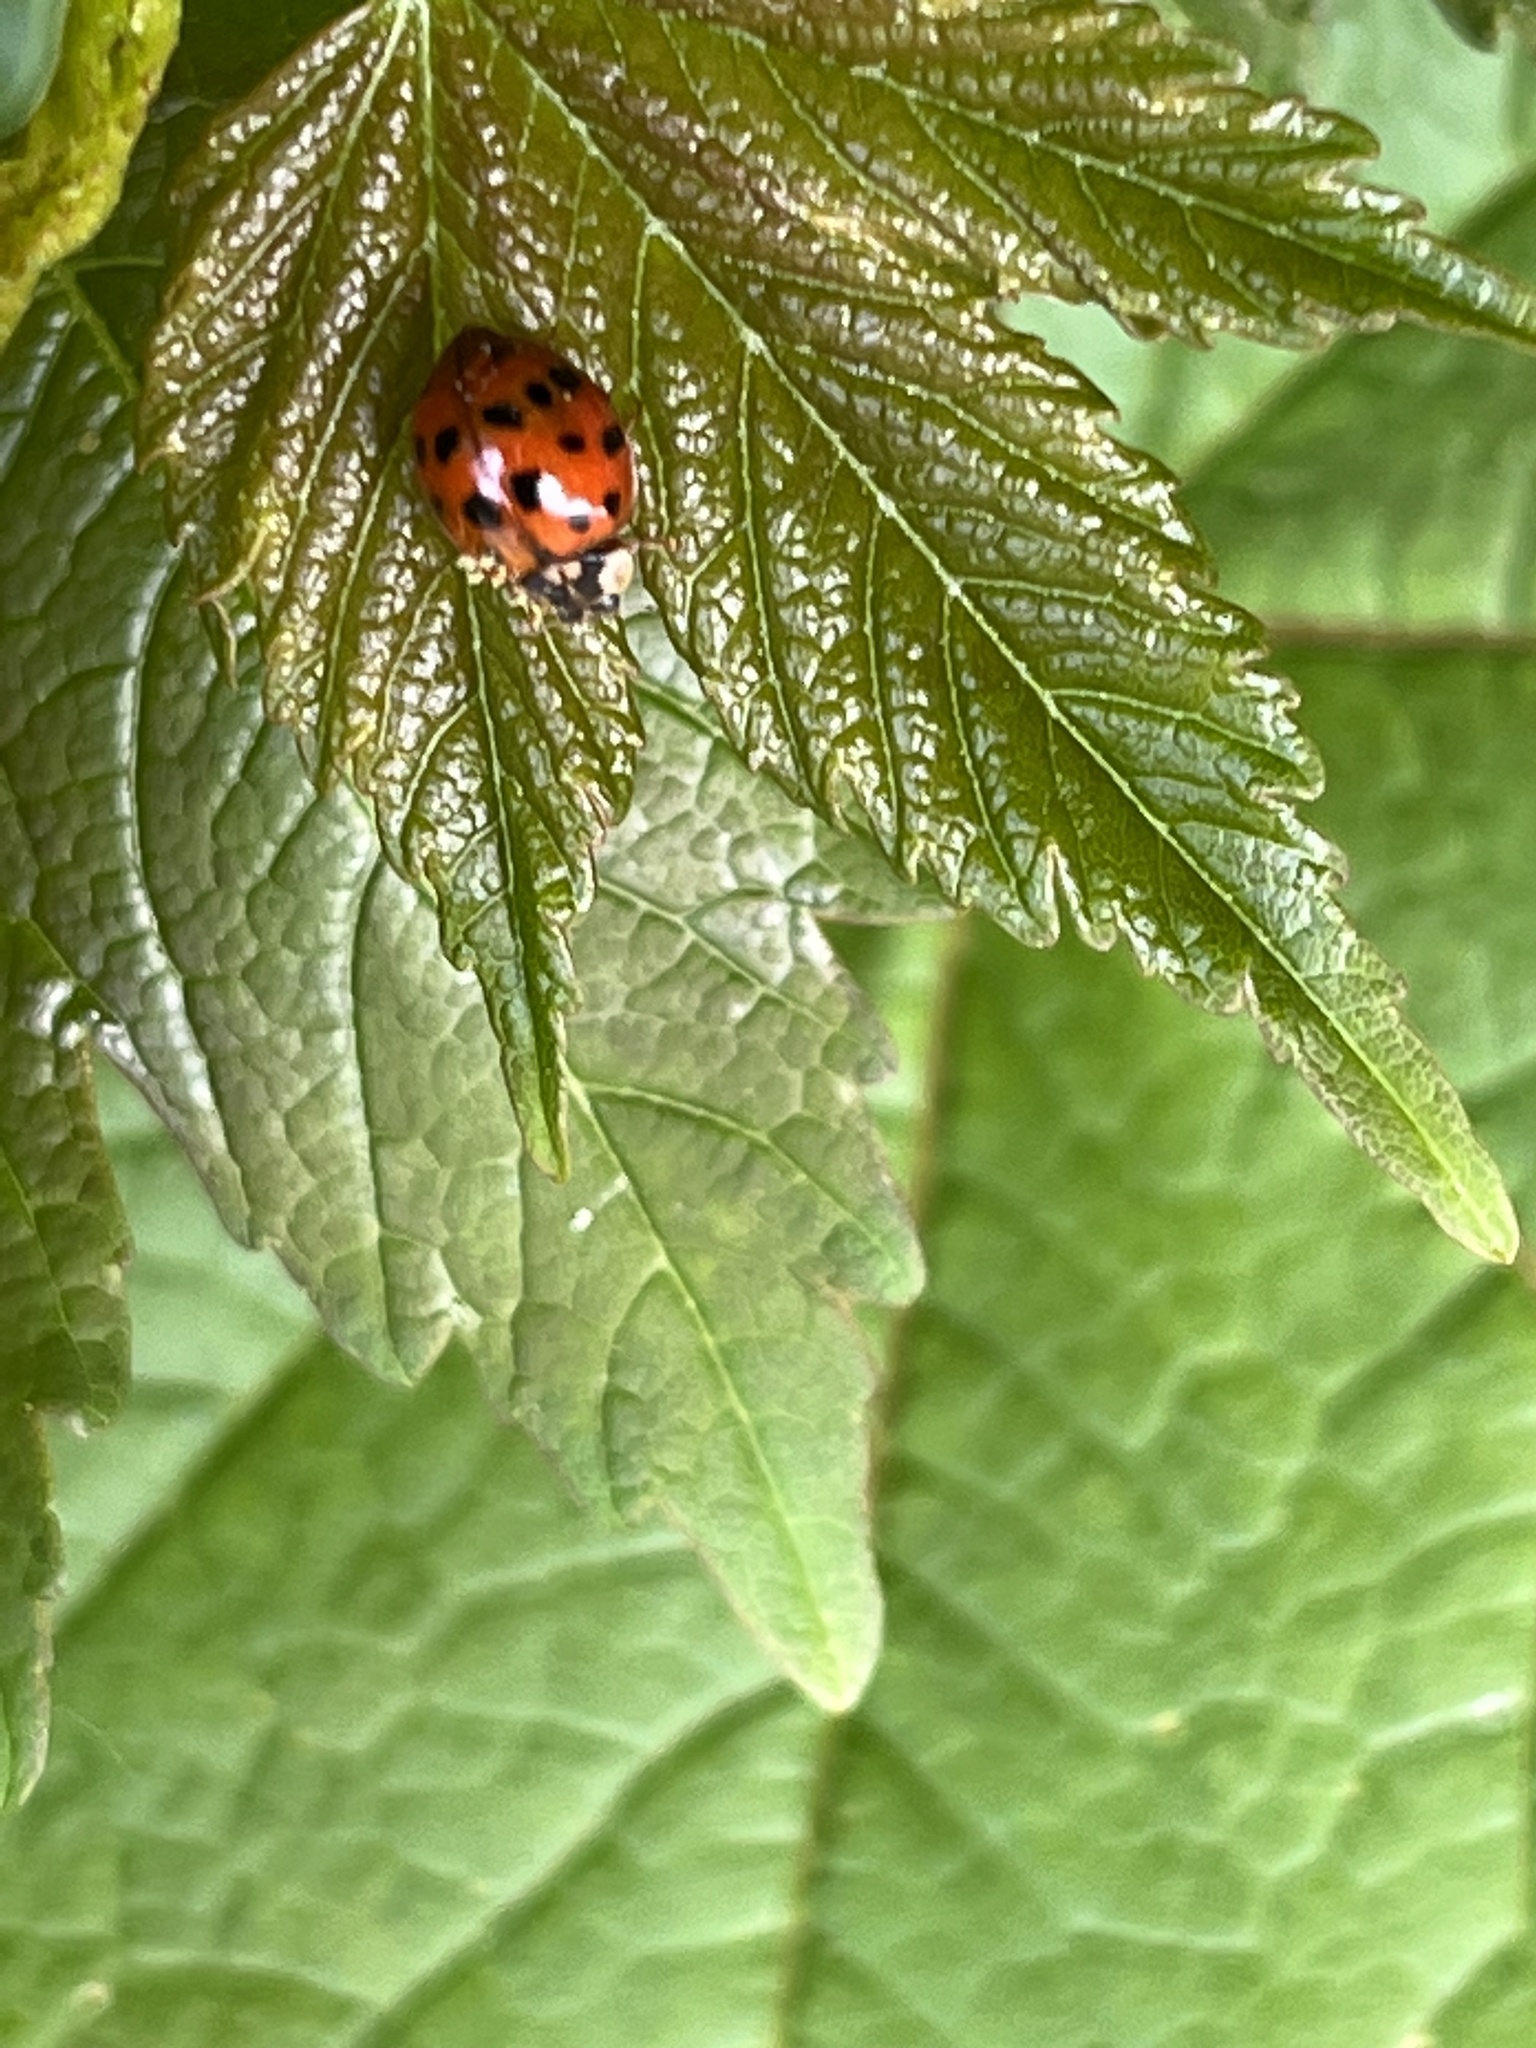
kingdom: Animalia
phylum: Arthropoda
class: Insecta
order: Coleoptera
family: Coccinellidae
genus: Harmonia
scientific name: Harmonia axyridis
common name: Harlequin ladybird
